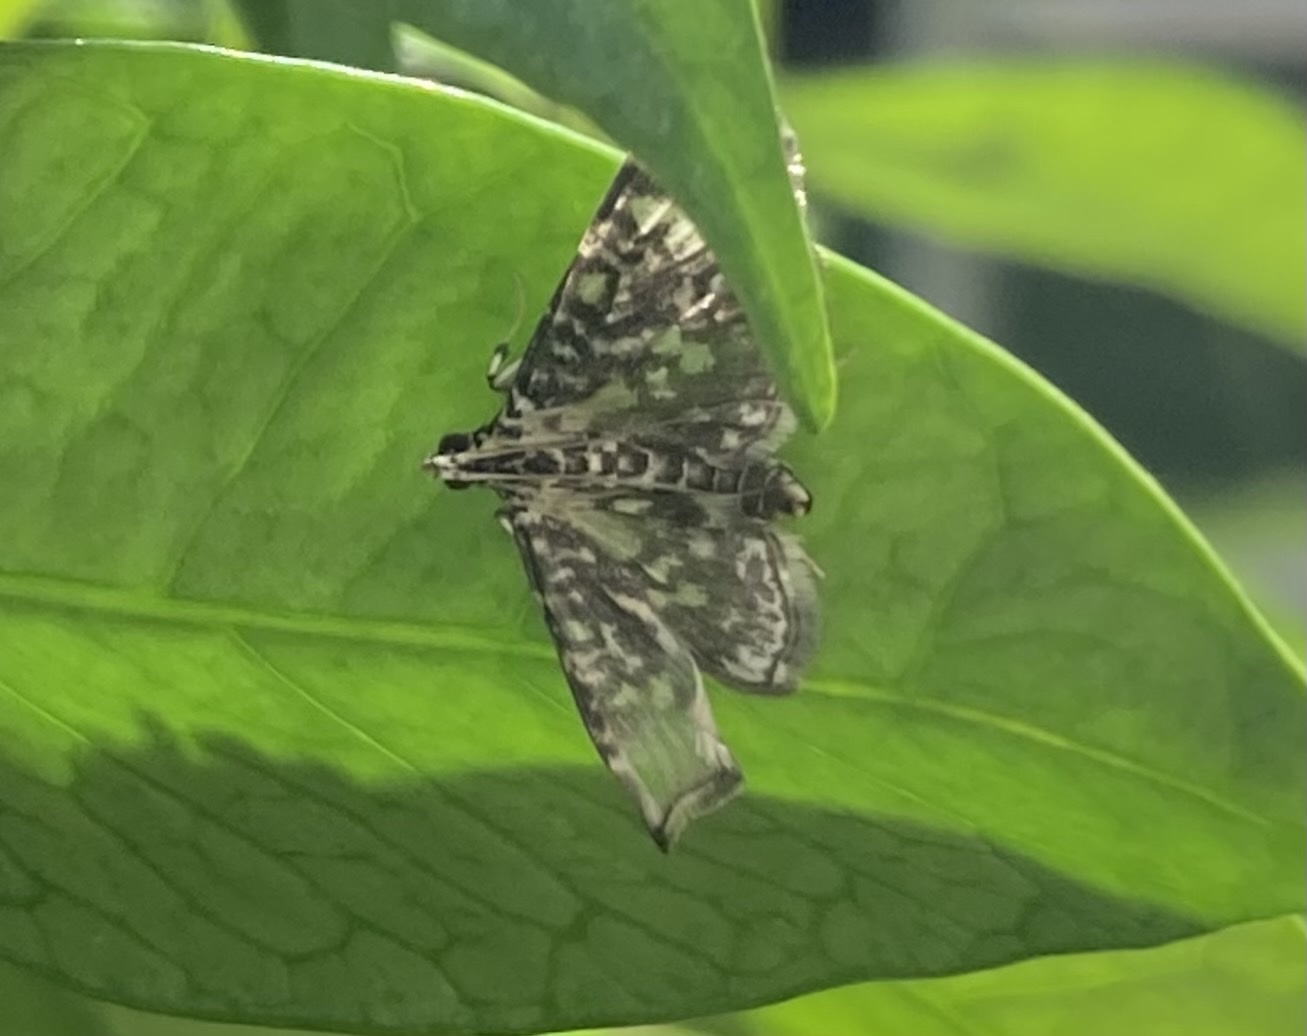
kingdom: Animalia
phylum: Arthropoda
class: Insecta
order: Lepidoptera
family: Crambidae
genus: Glyphodes
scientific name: Glyphodes onychinalis
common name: Swan plant moth
